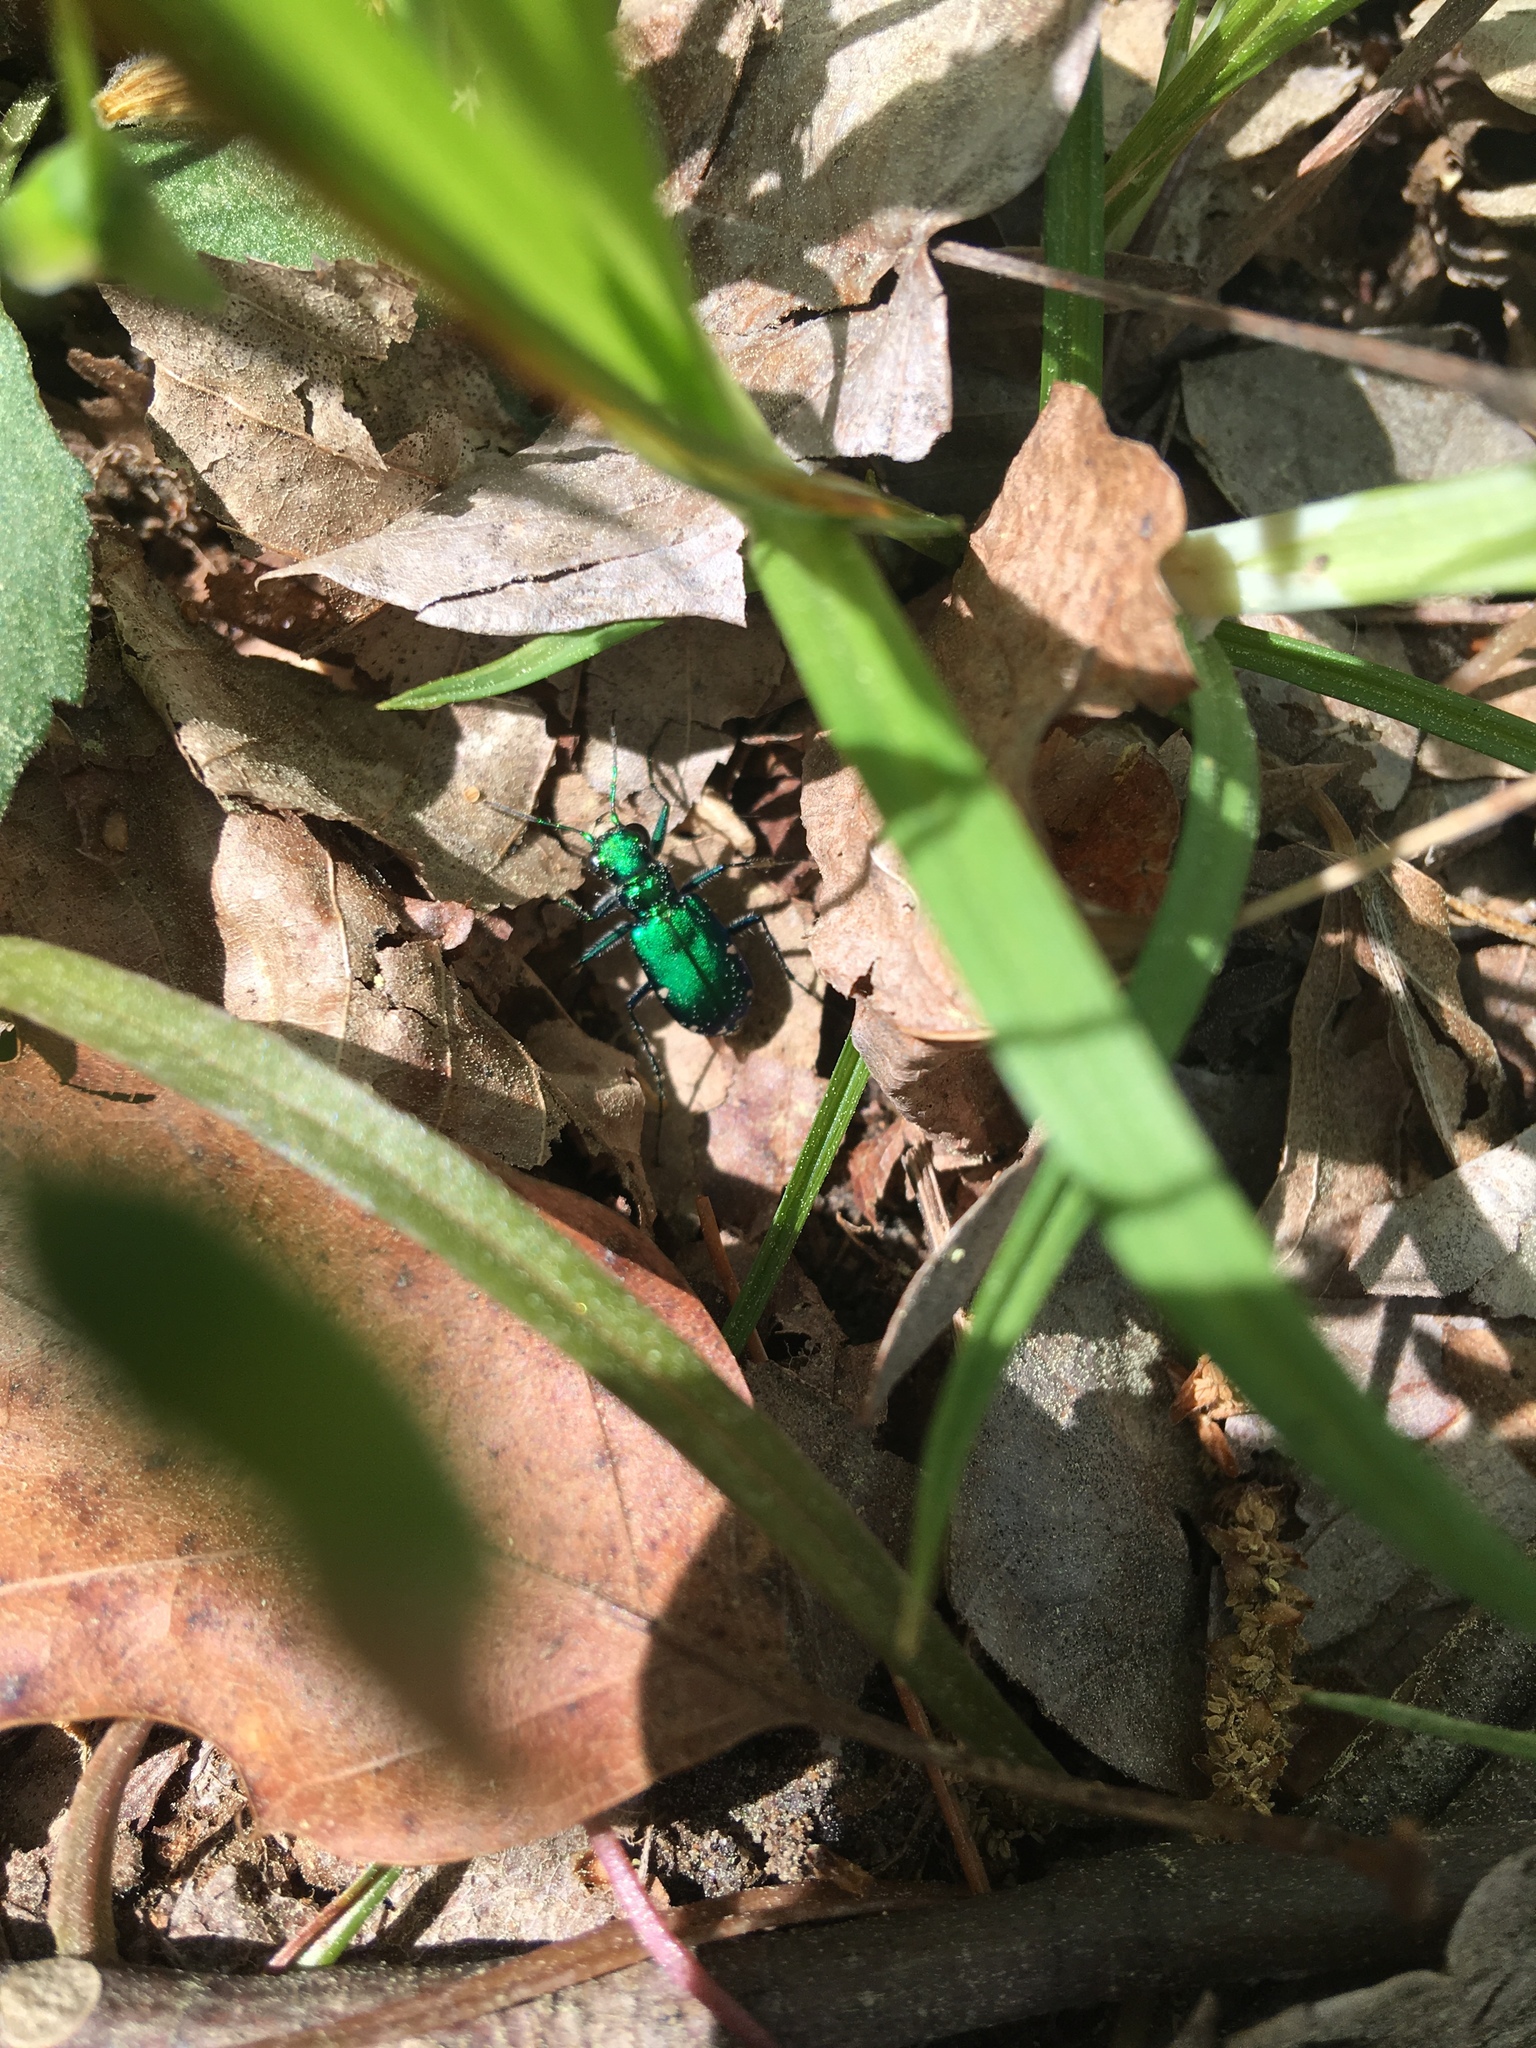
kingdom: Animalia
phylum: Arthropoda
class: Insecta
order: Coleoptera
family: Carabidae
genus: Cicindela
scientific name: Cicindela sexguttata
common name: Six-spotted tiger beetle
